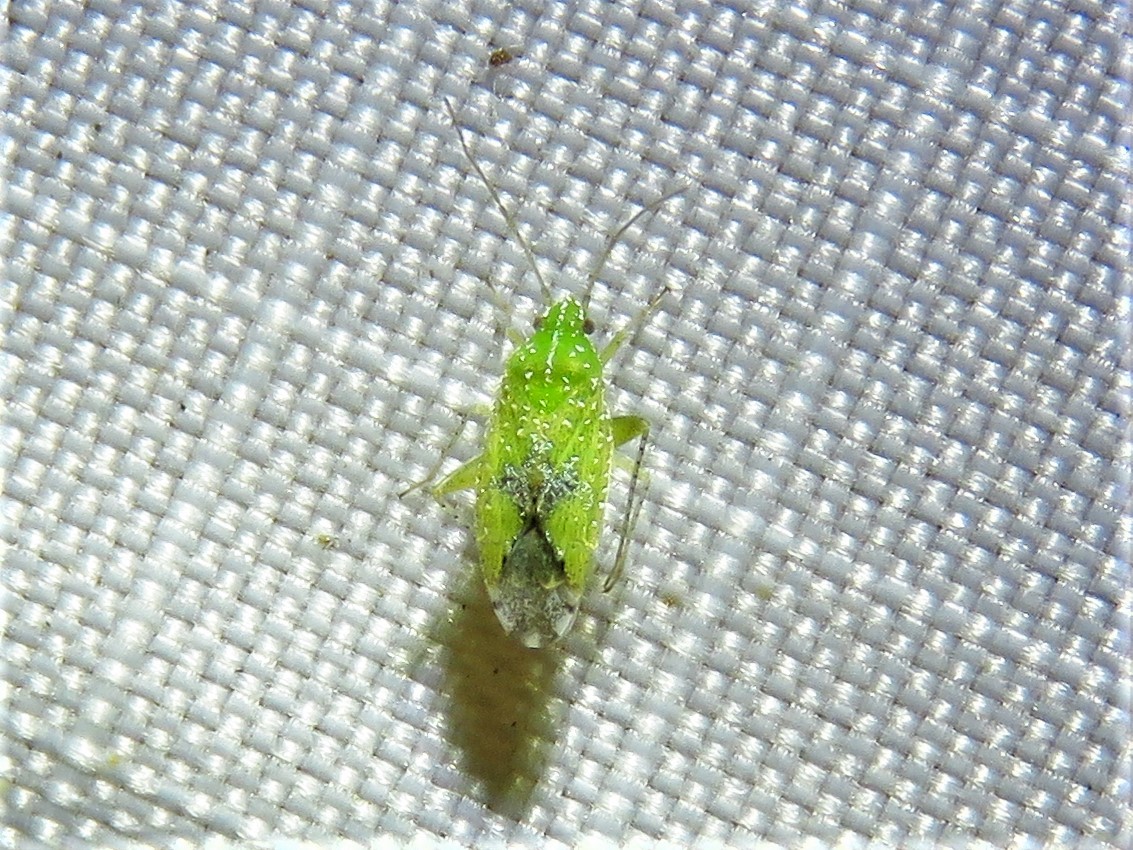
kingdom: Animalia
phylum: Arthropoda
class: Insecta
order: Hemiptera
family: Miridae
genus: Keltonia
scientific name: Keltonia tuckeri
